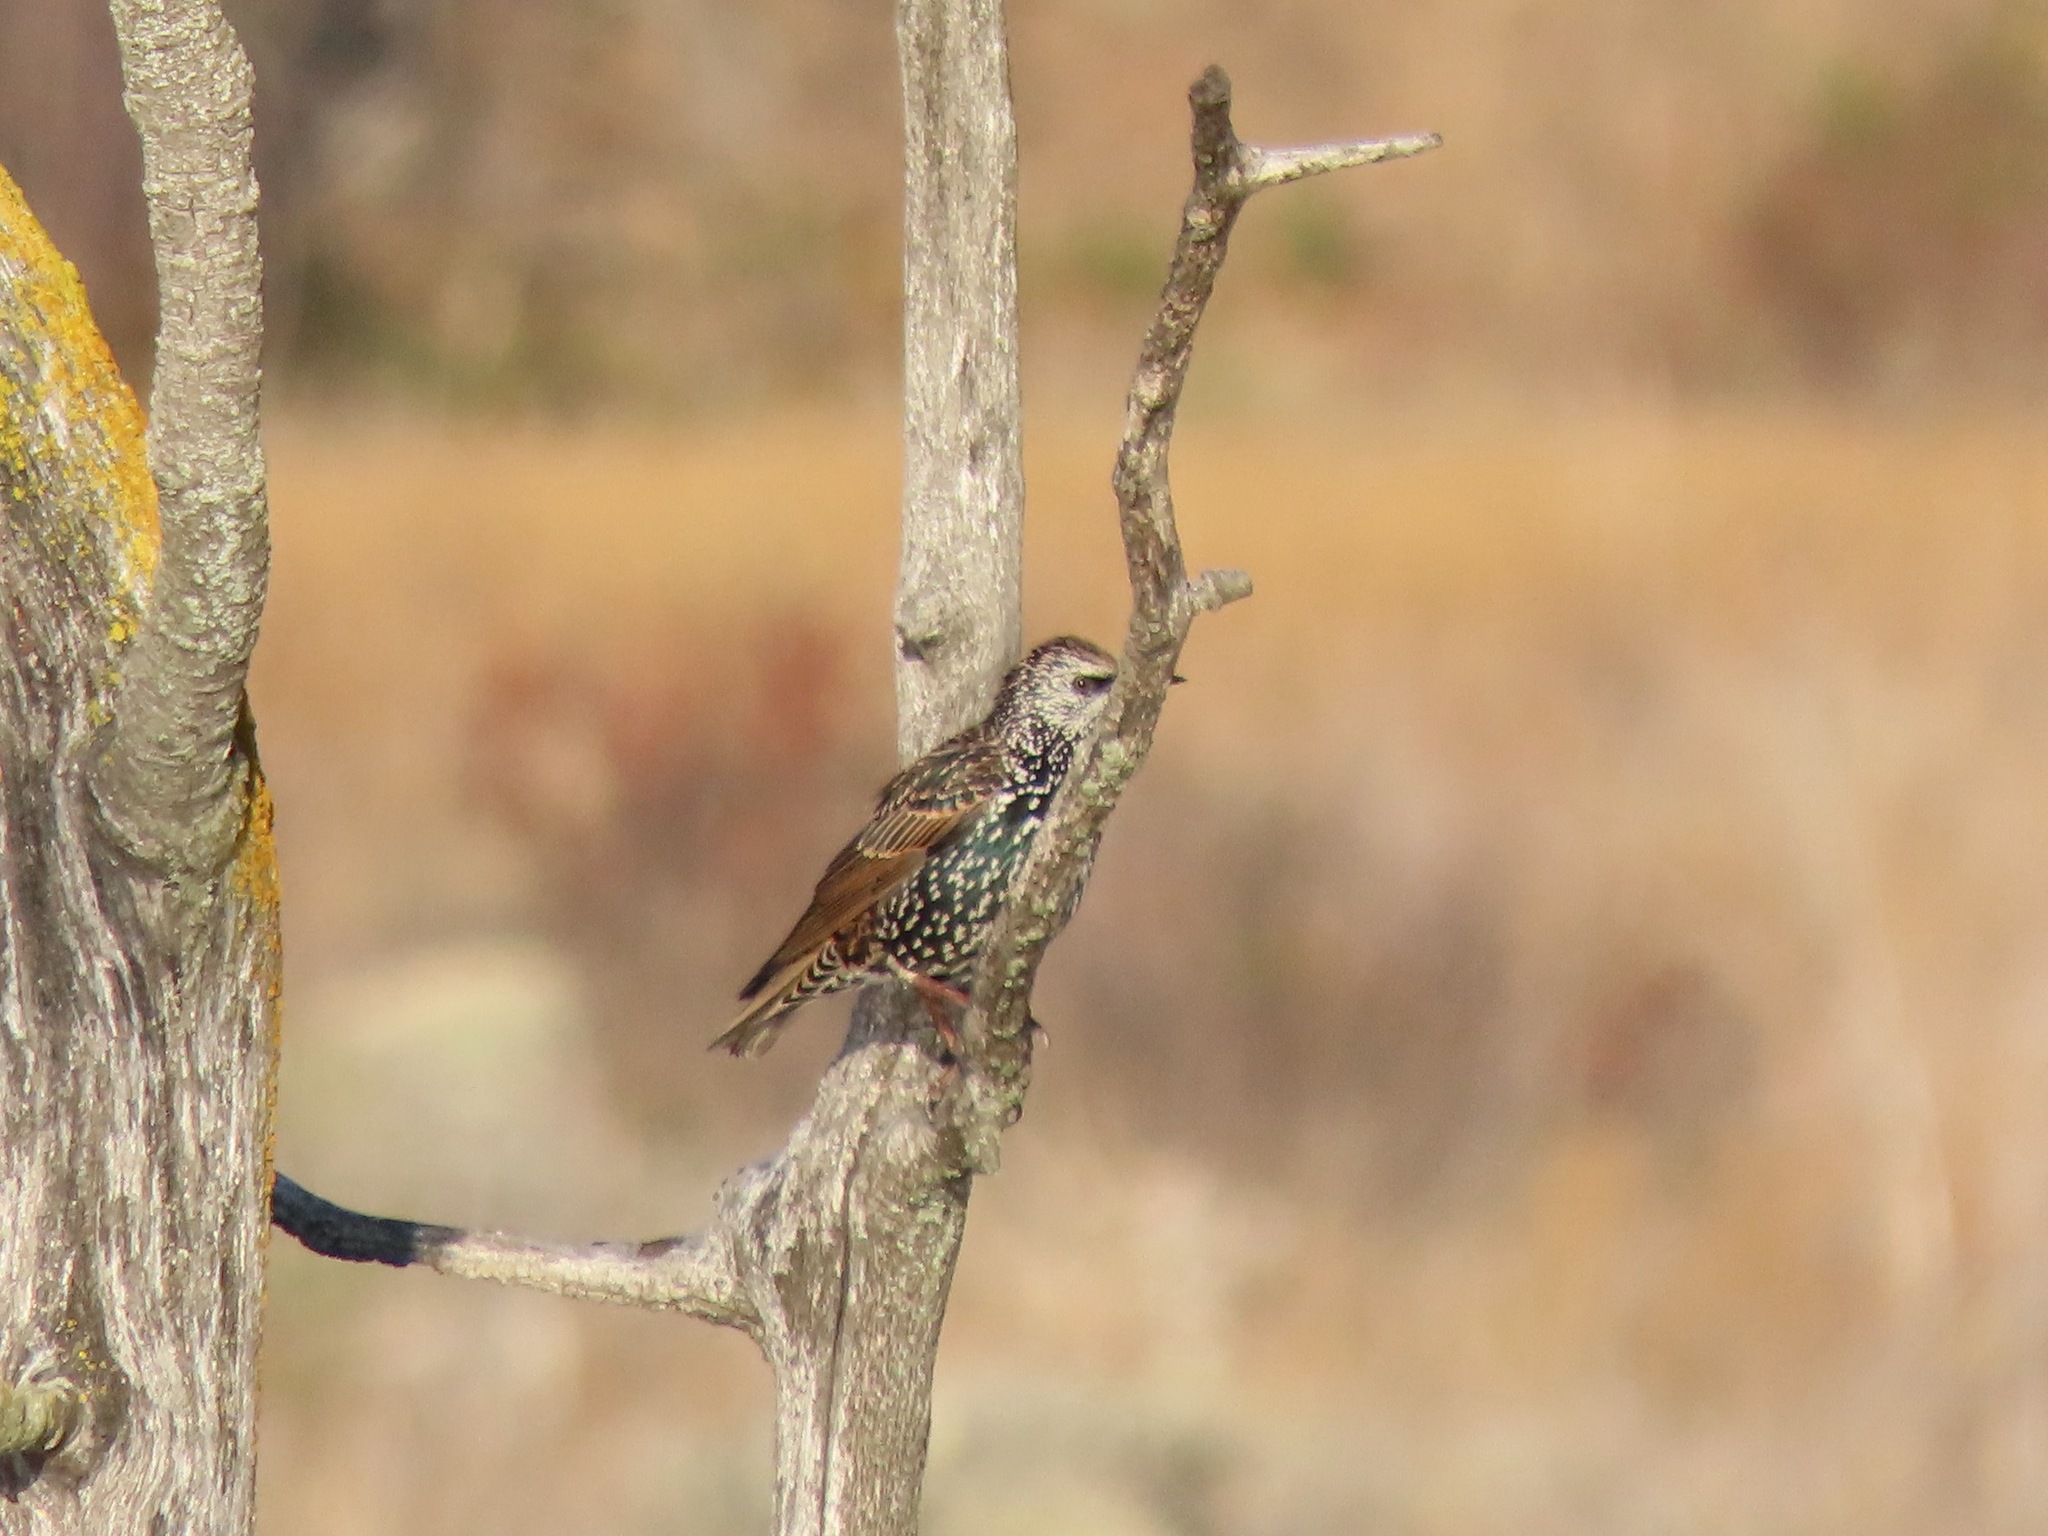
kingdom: Animalia
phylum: Chordata
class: Aves
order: Passeriformes
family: Sturnidae
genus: Sturnus
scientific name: Sturnus vulgaris
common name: Common starling
